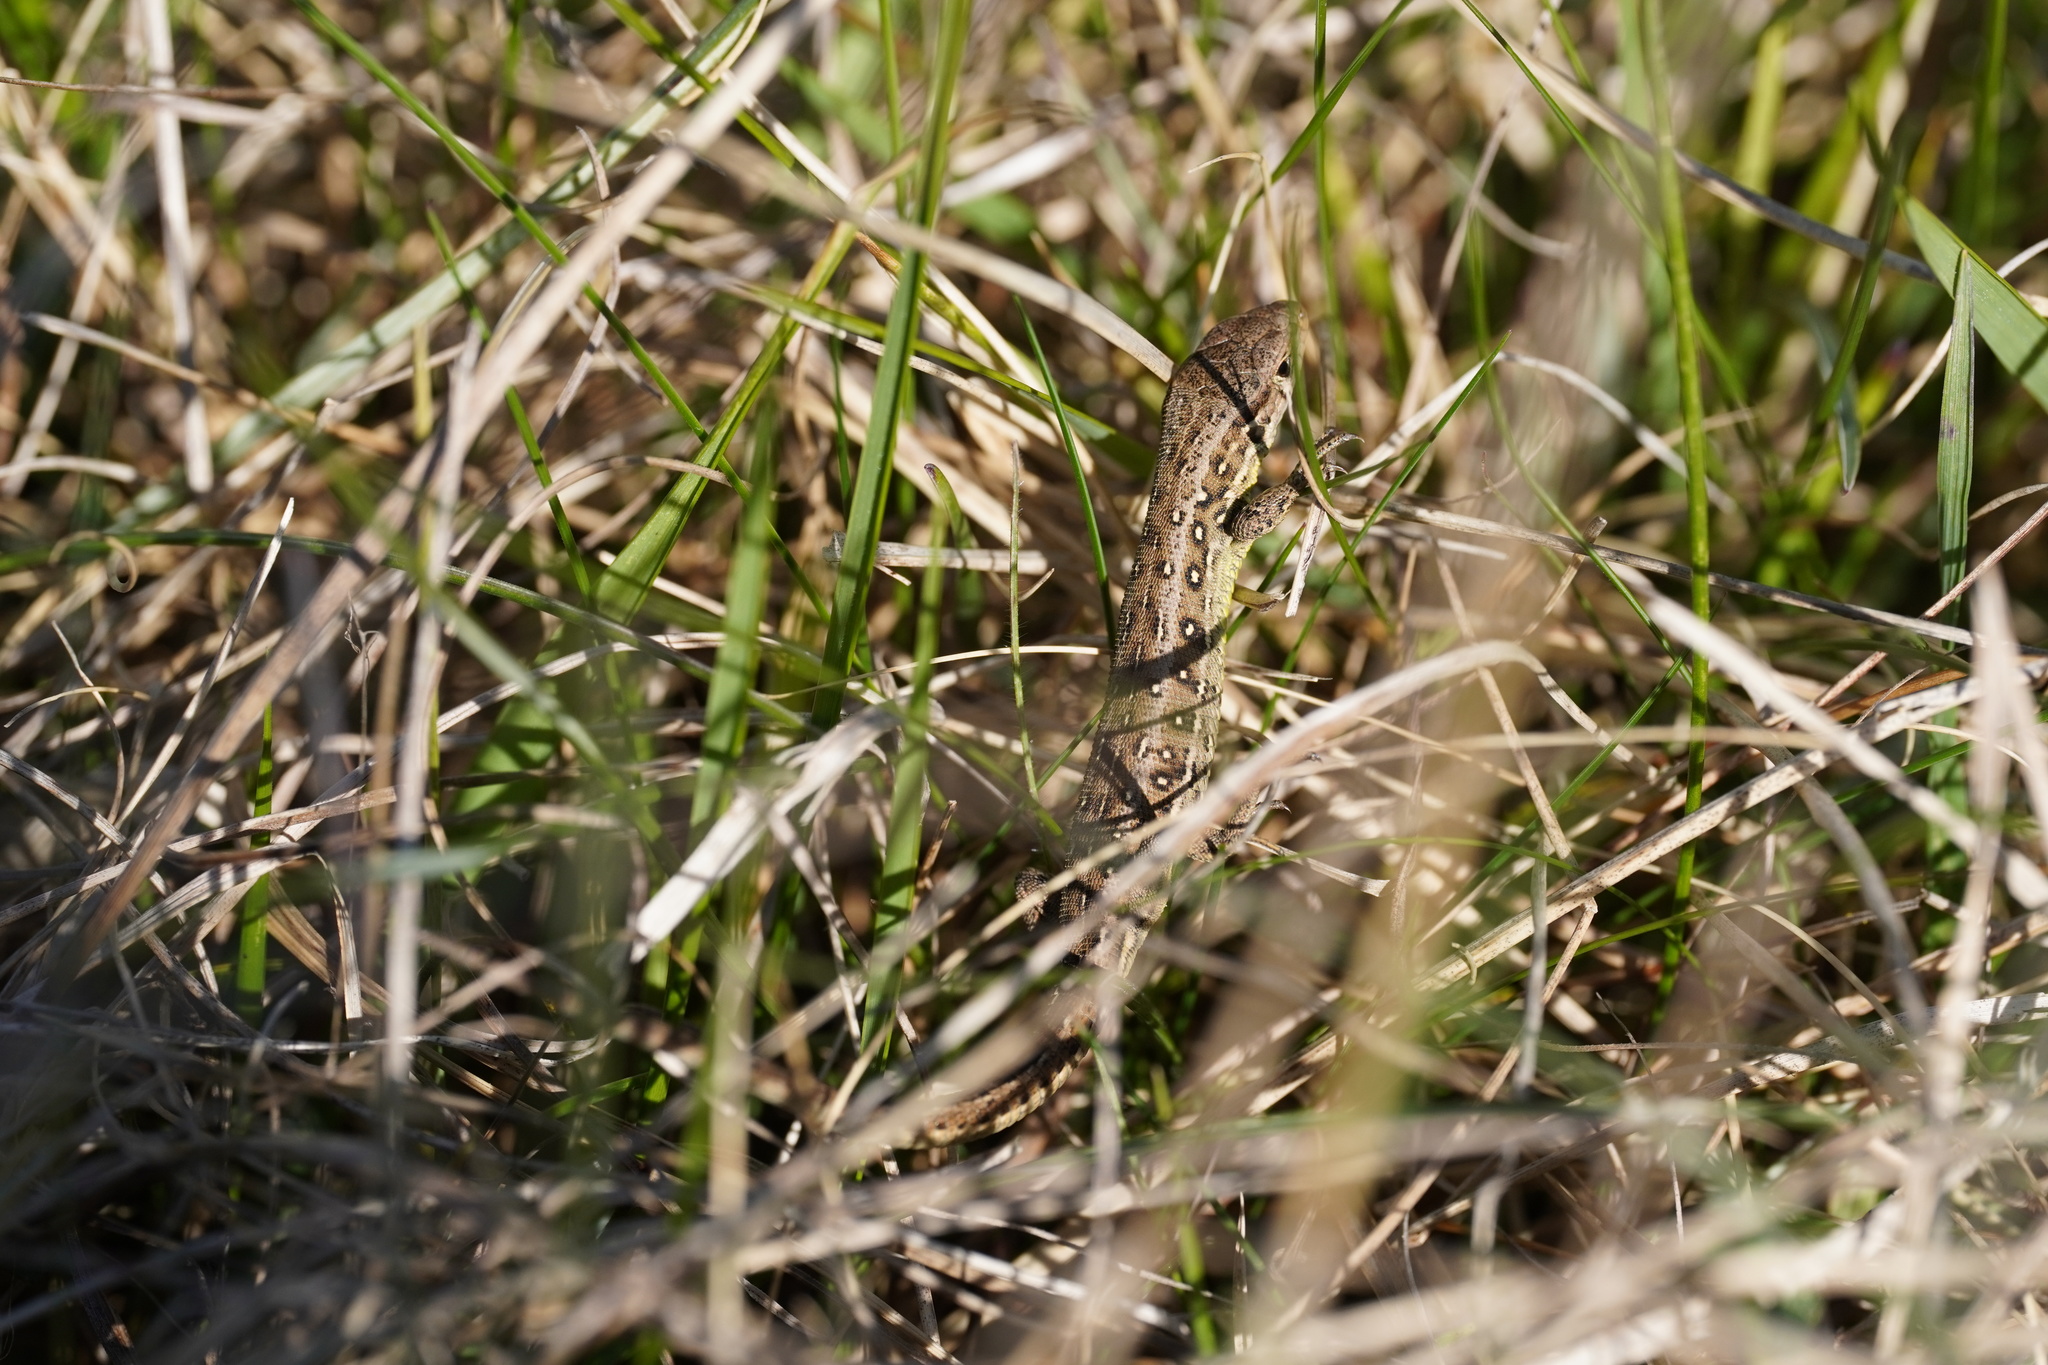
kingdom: Animalia
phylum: Chordata
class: Squamata
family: Lacertidae
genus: Lacerta
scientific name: Lacerta agilis
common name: Sand lizard
